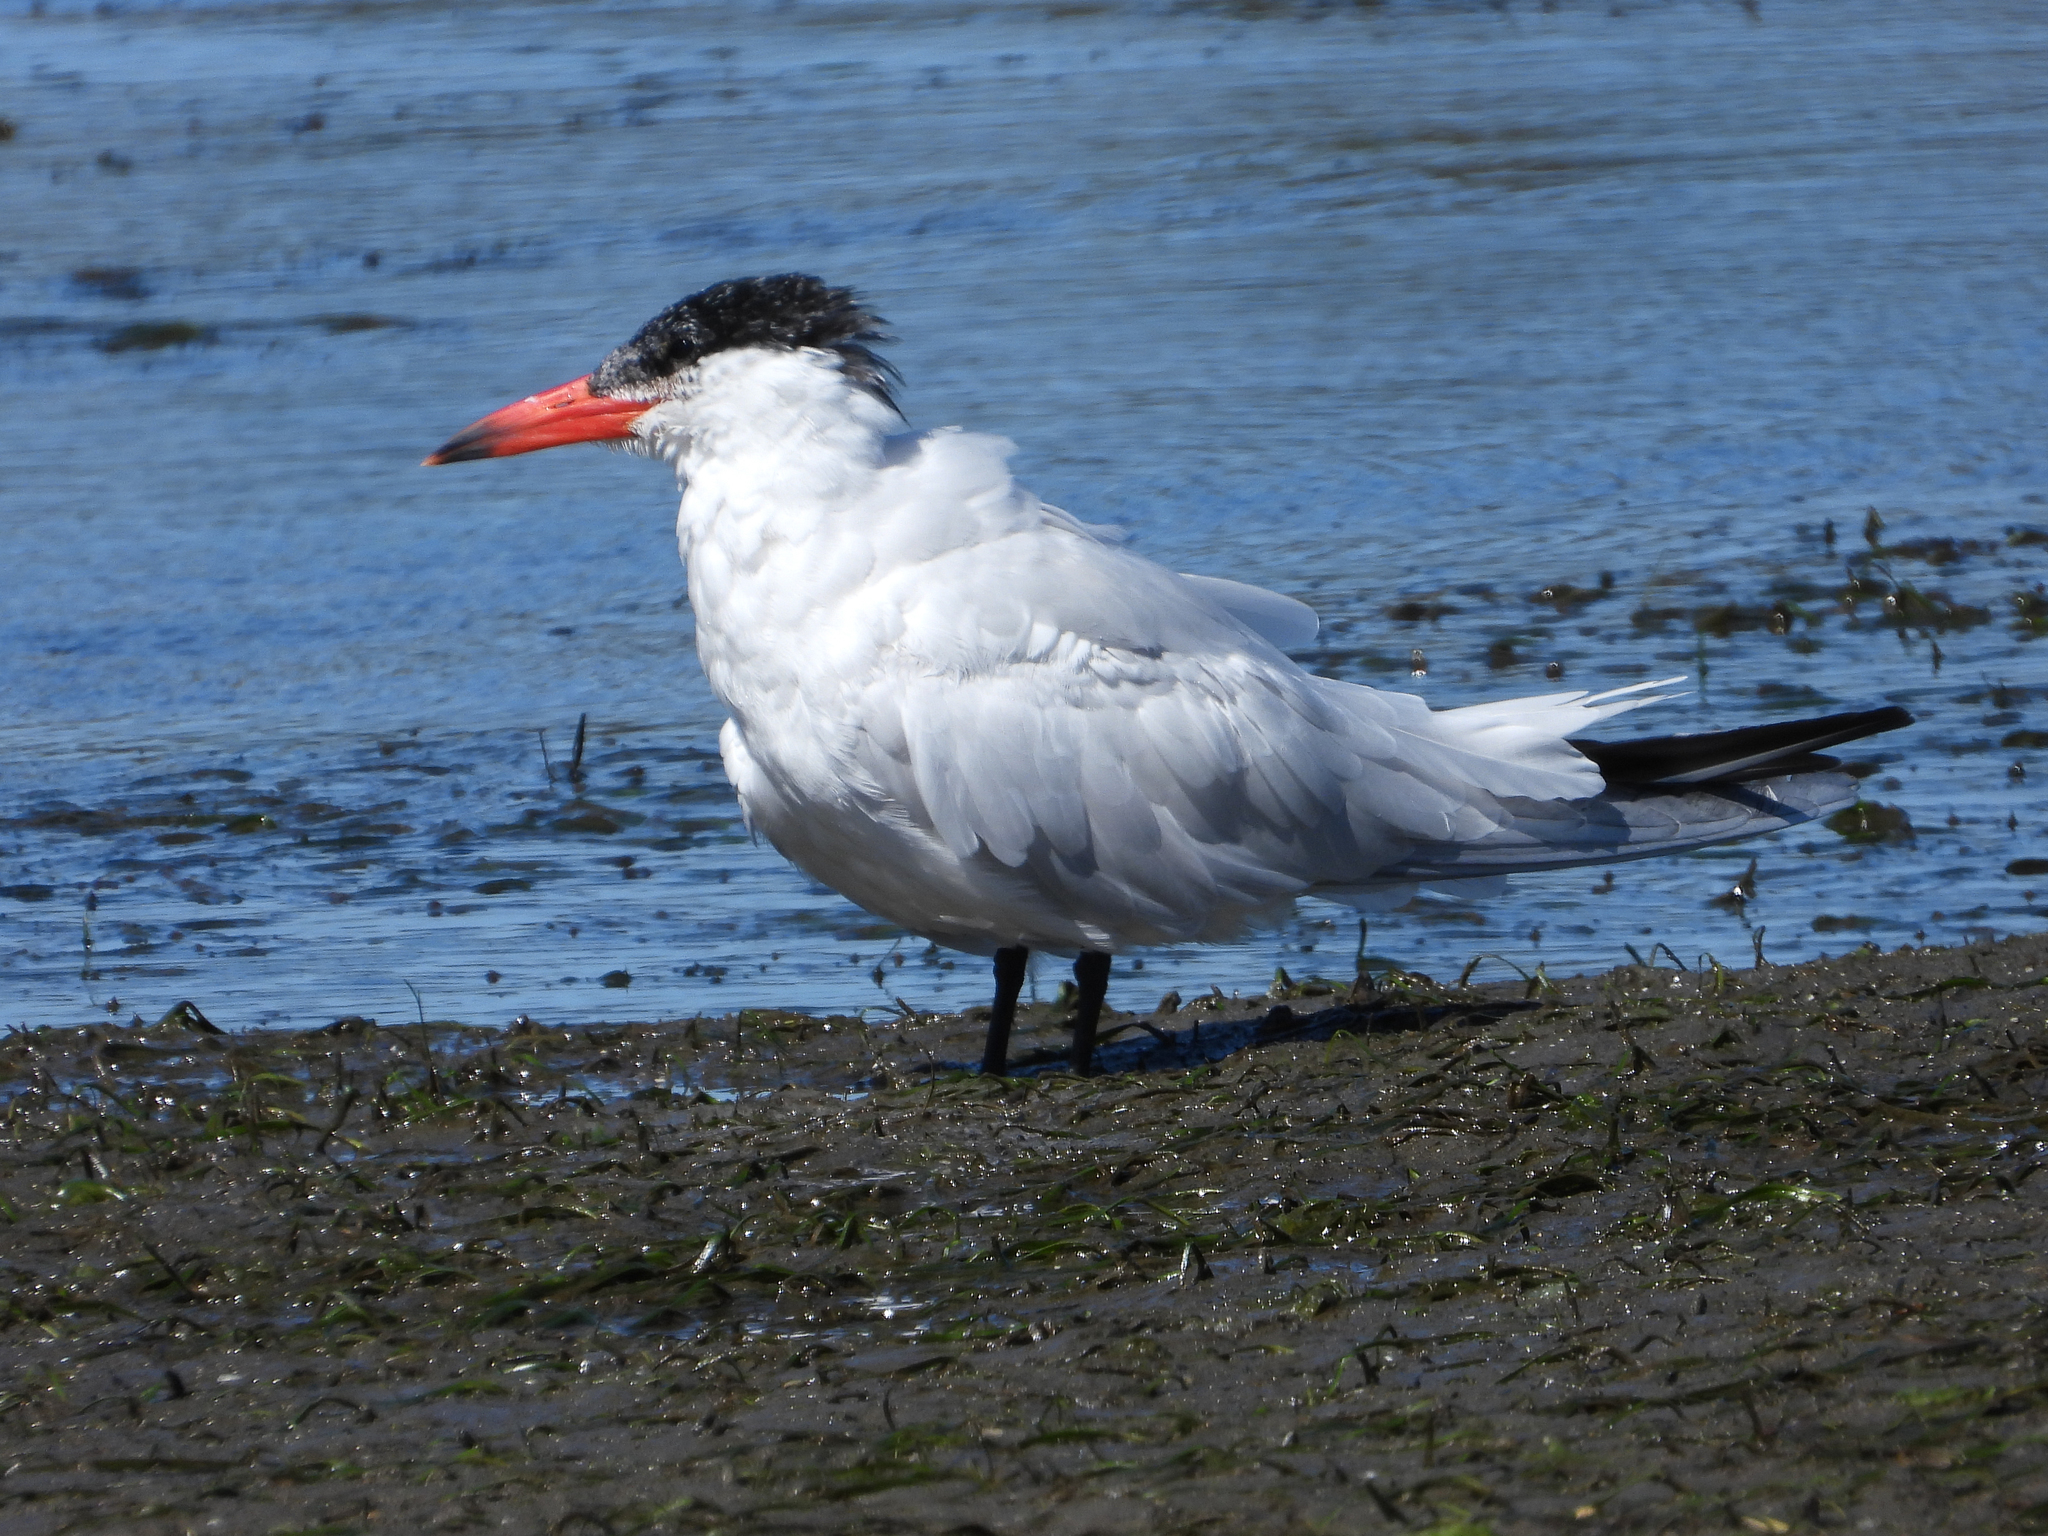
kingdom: Animalia
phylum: Chordata
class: Aves
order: Charadriiformes
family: Laridae
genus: Hydroprogne
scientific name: Hydroprogne caspia
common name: Caspian tern
